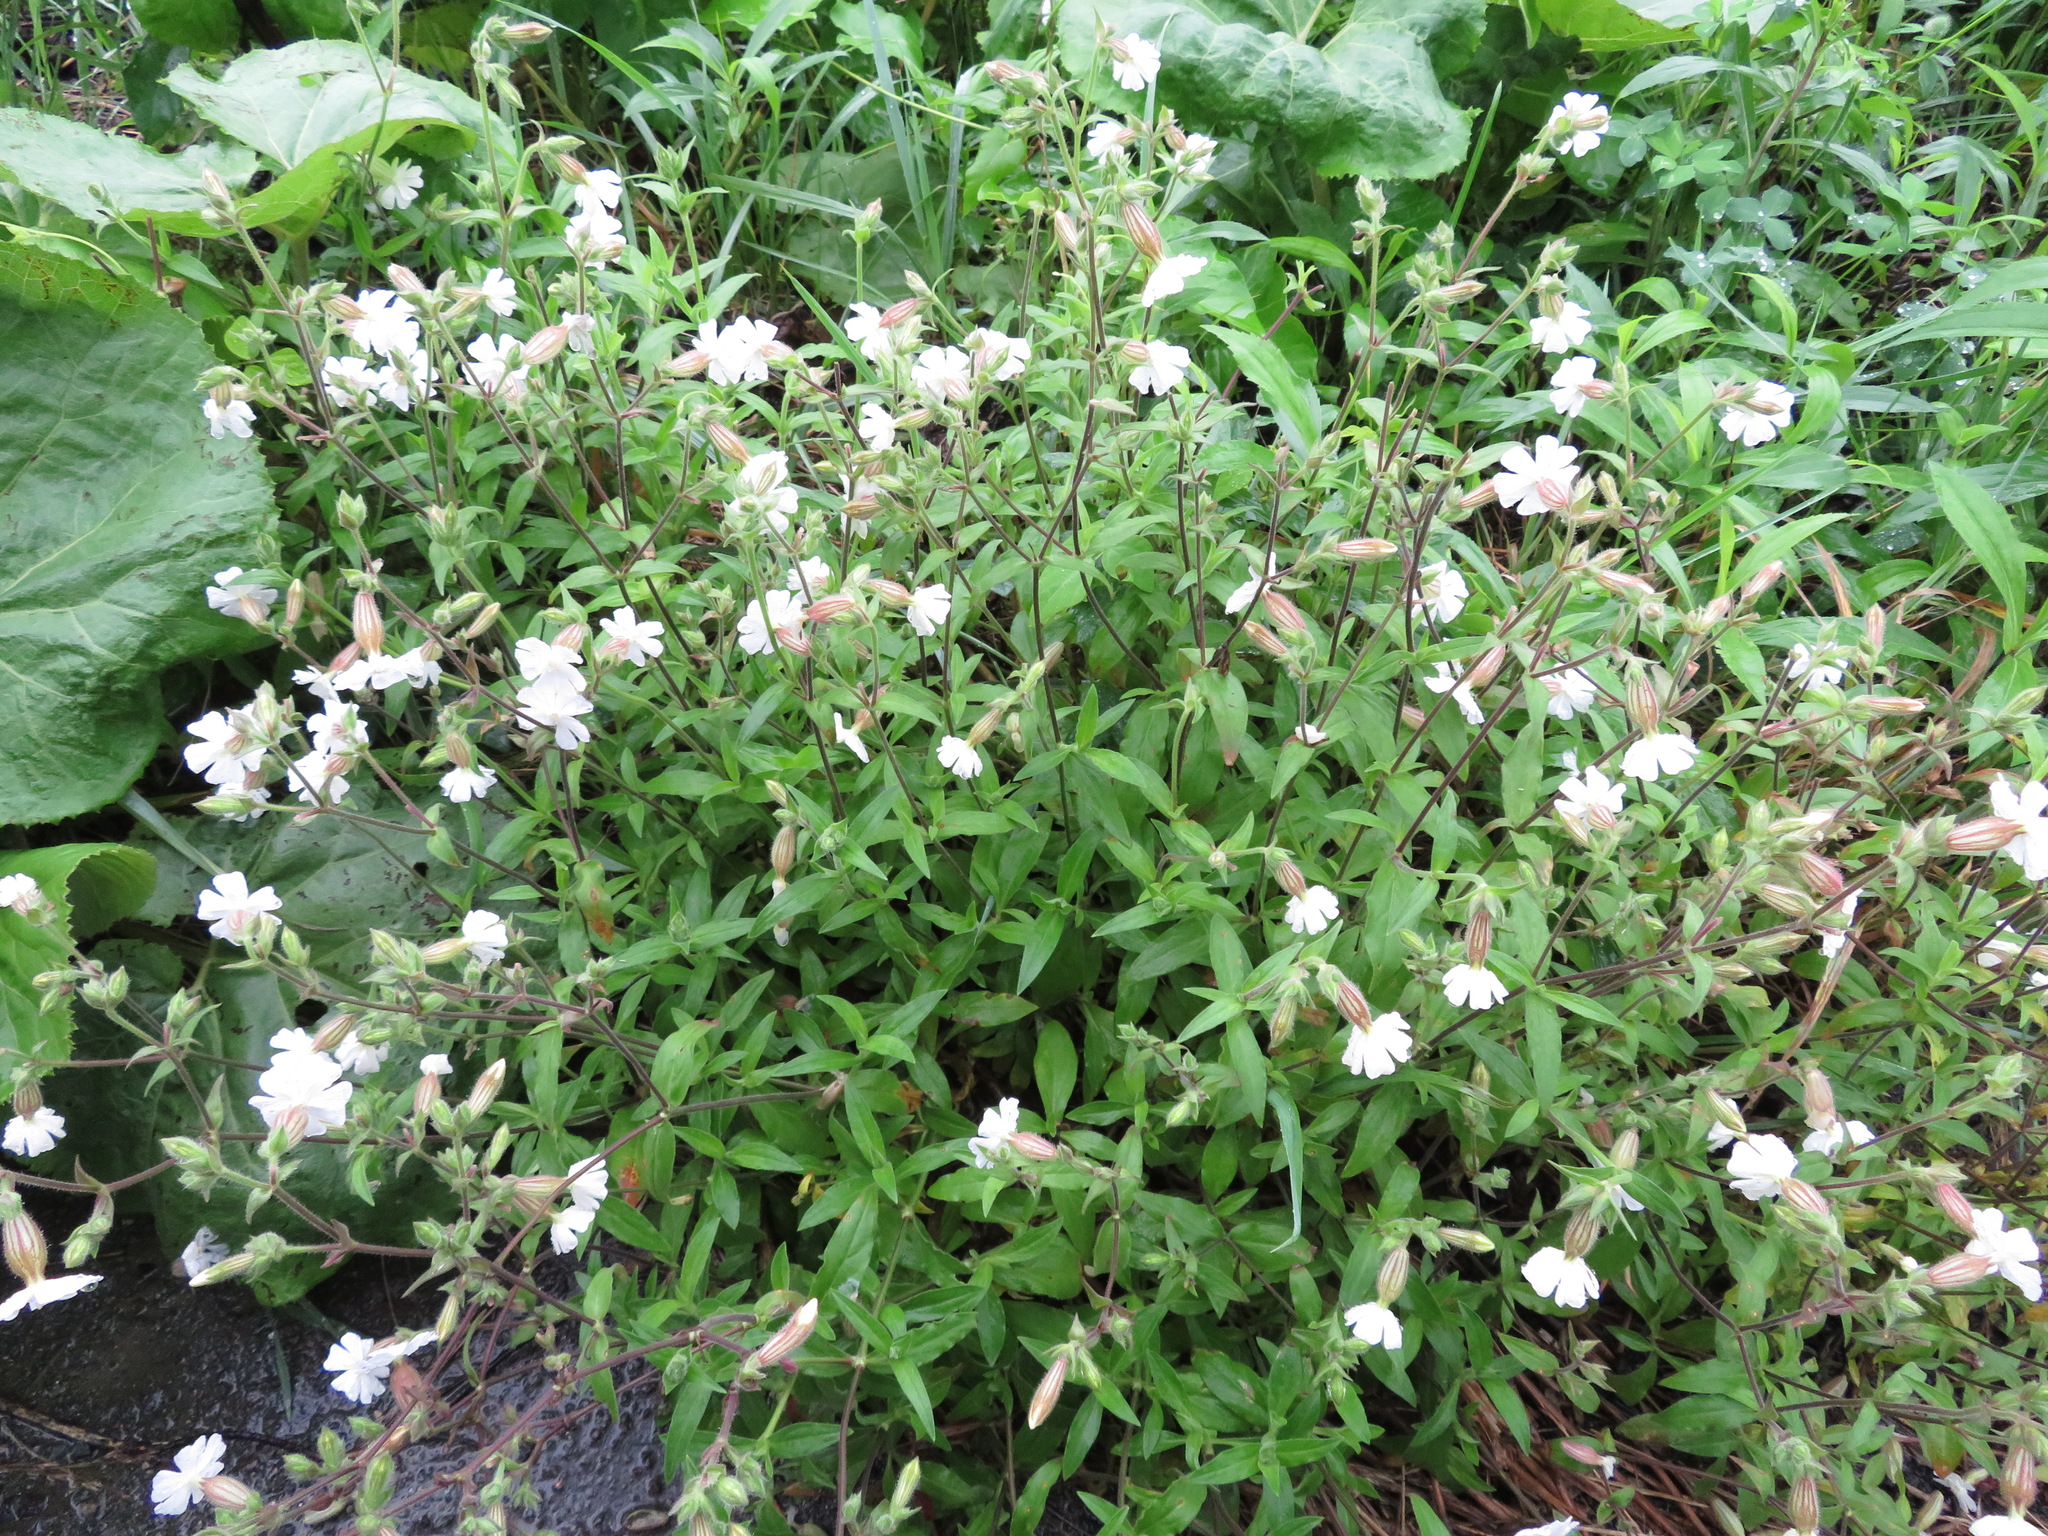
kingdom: Plantae
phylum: Tracheophyta
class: Magnoliopsida
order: Caryophyllales
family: Caryophyllaceae
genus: Silene
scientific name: Silene latifolia
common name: White campion
